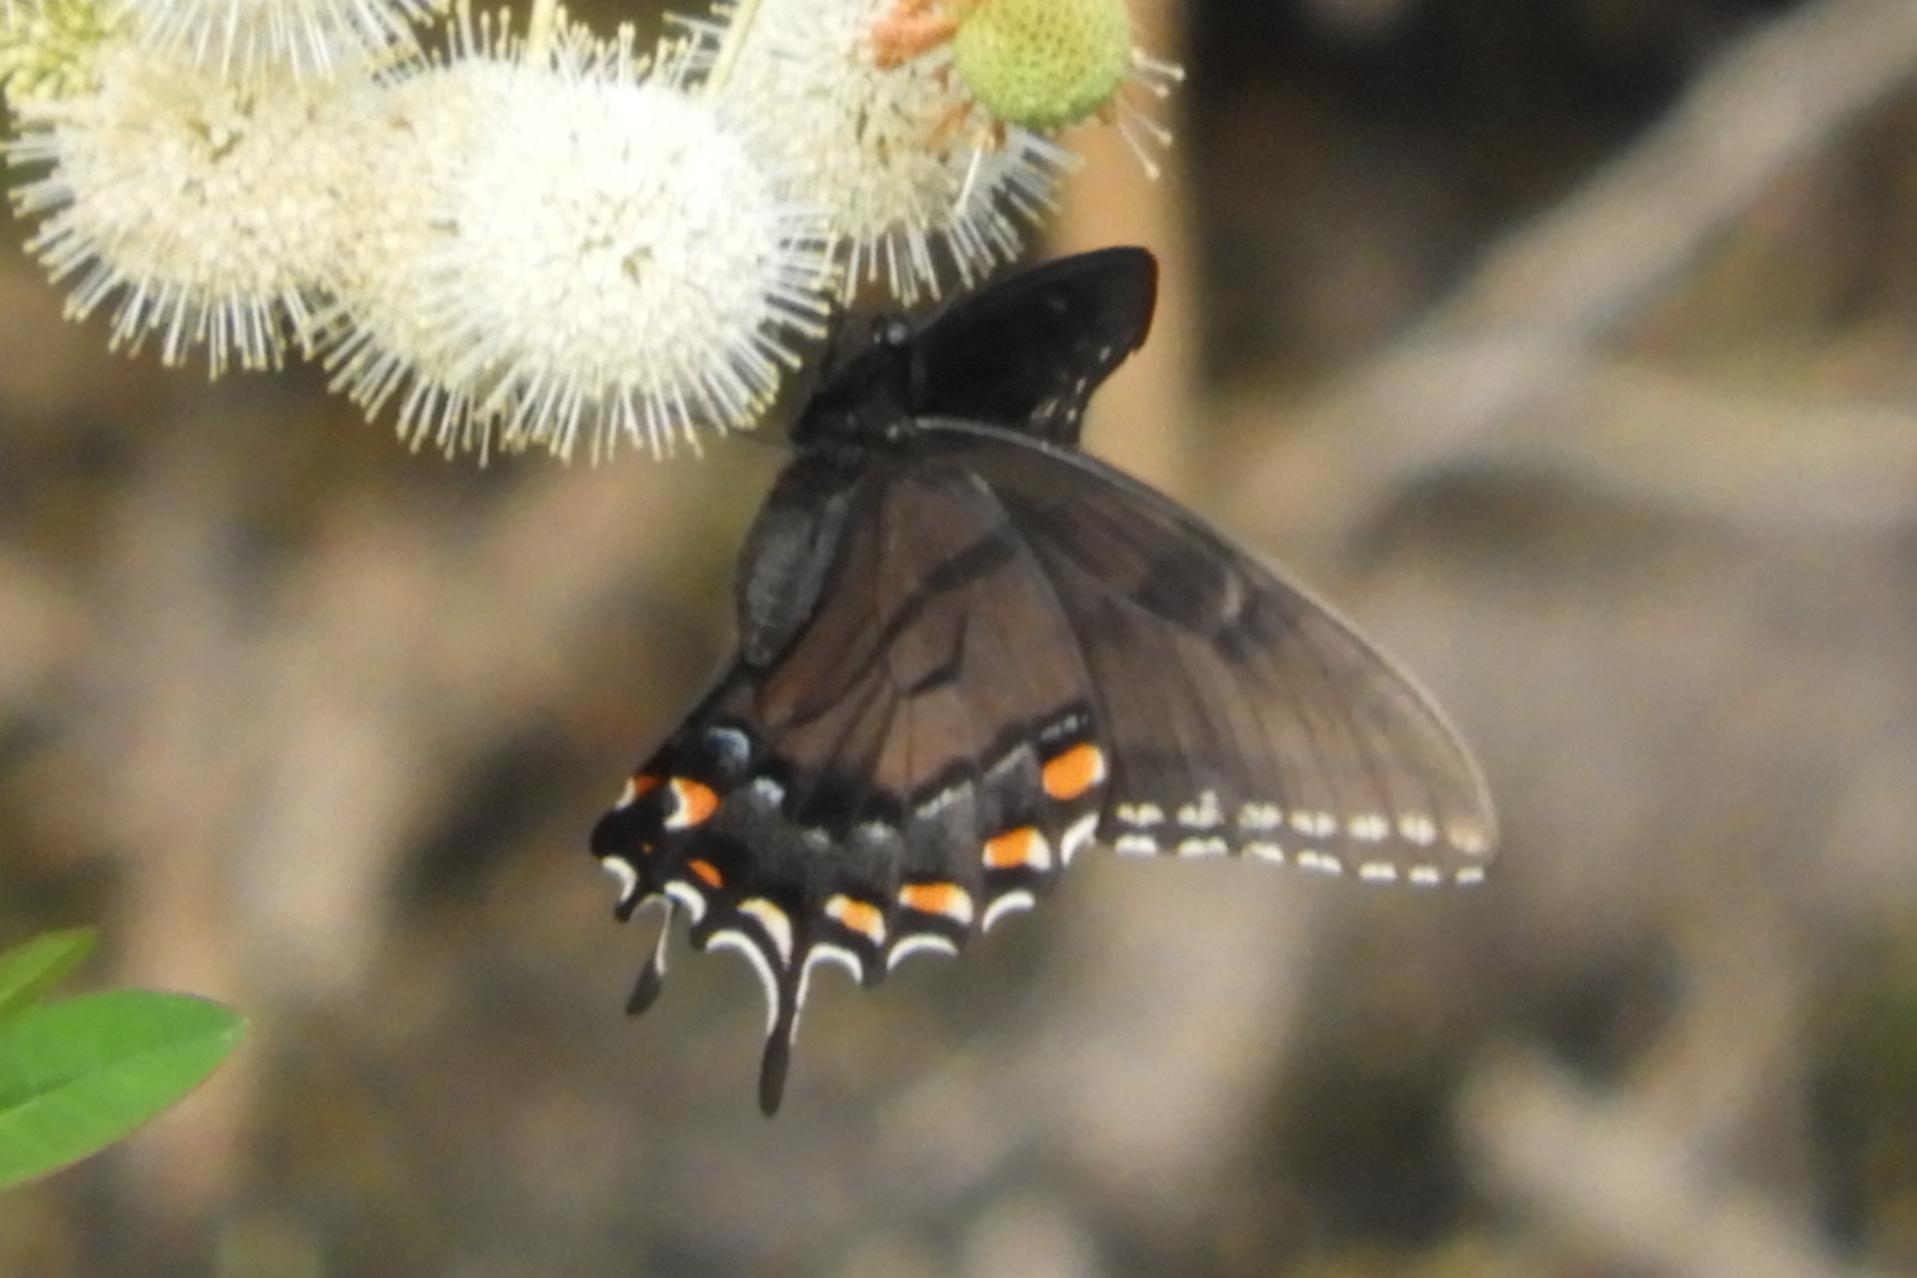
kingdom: Animalia
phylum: Arthropoda
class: Insecta
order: Lepidoptera
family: Papilionidae
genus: Papilio
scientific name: Papilio glaucus
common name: Tiger swallowtail
